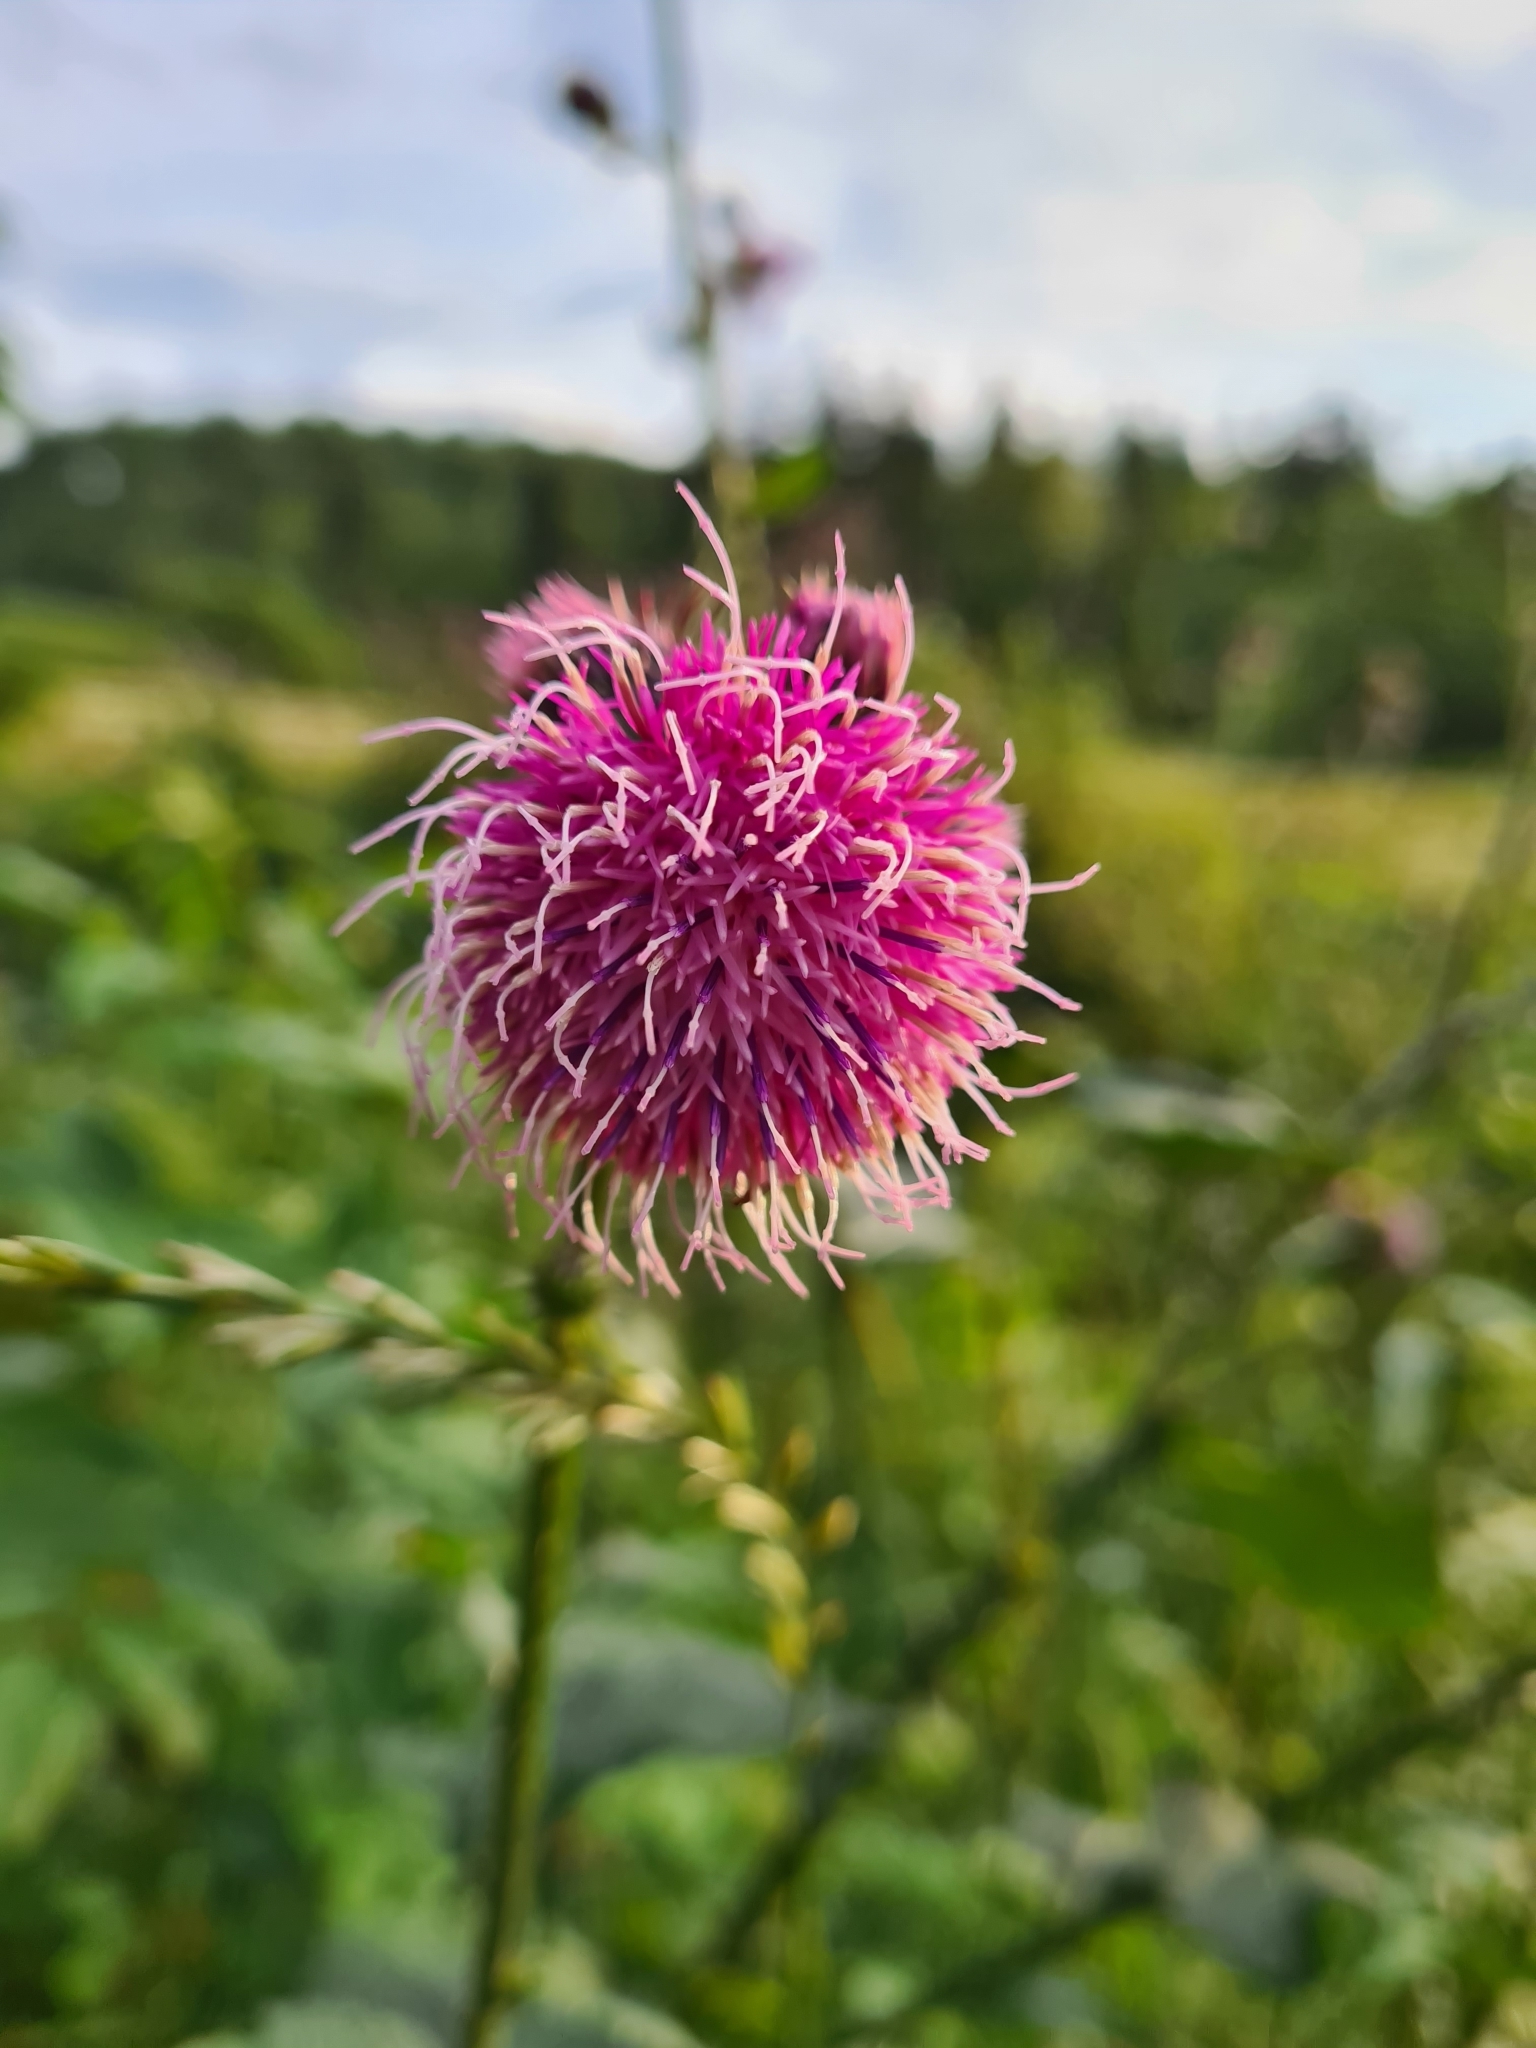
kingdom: Plantae
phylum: Tracheophyta
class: Magnoliopsida
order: Asterales
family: Asteraceae
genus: Carduus
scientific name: Carduus personata
